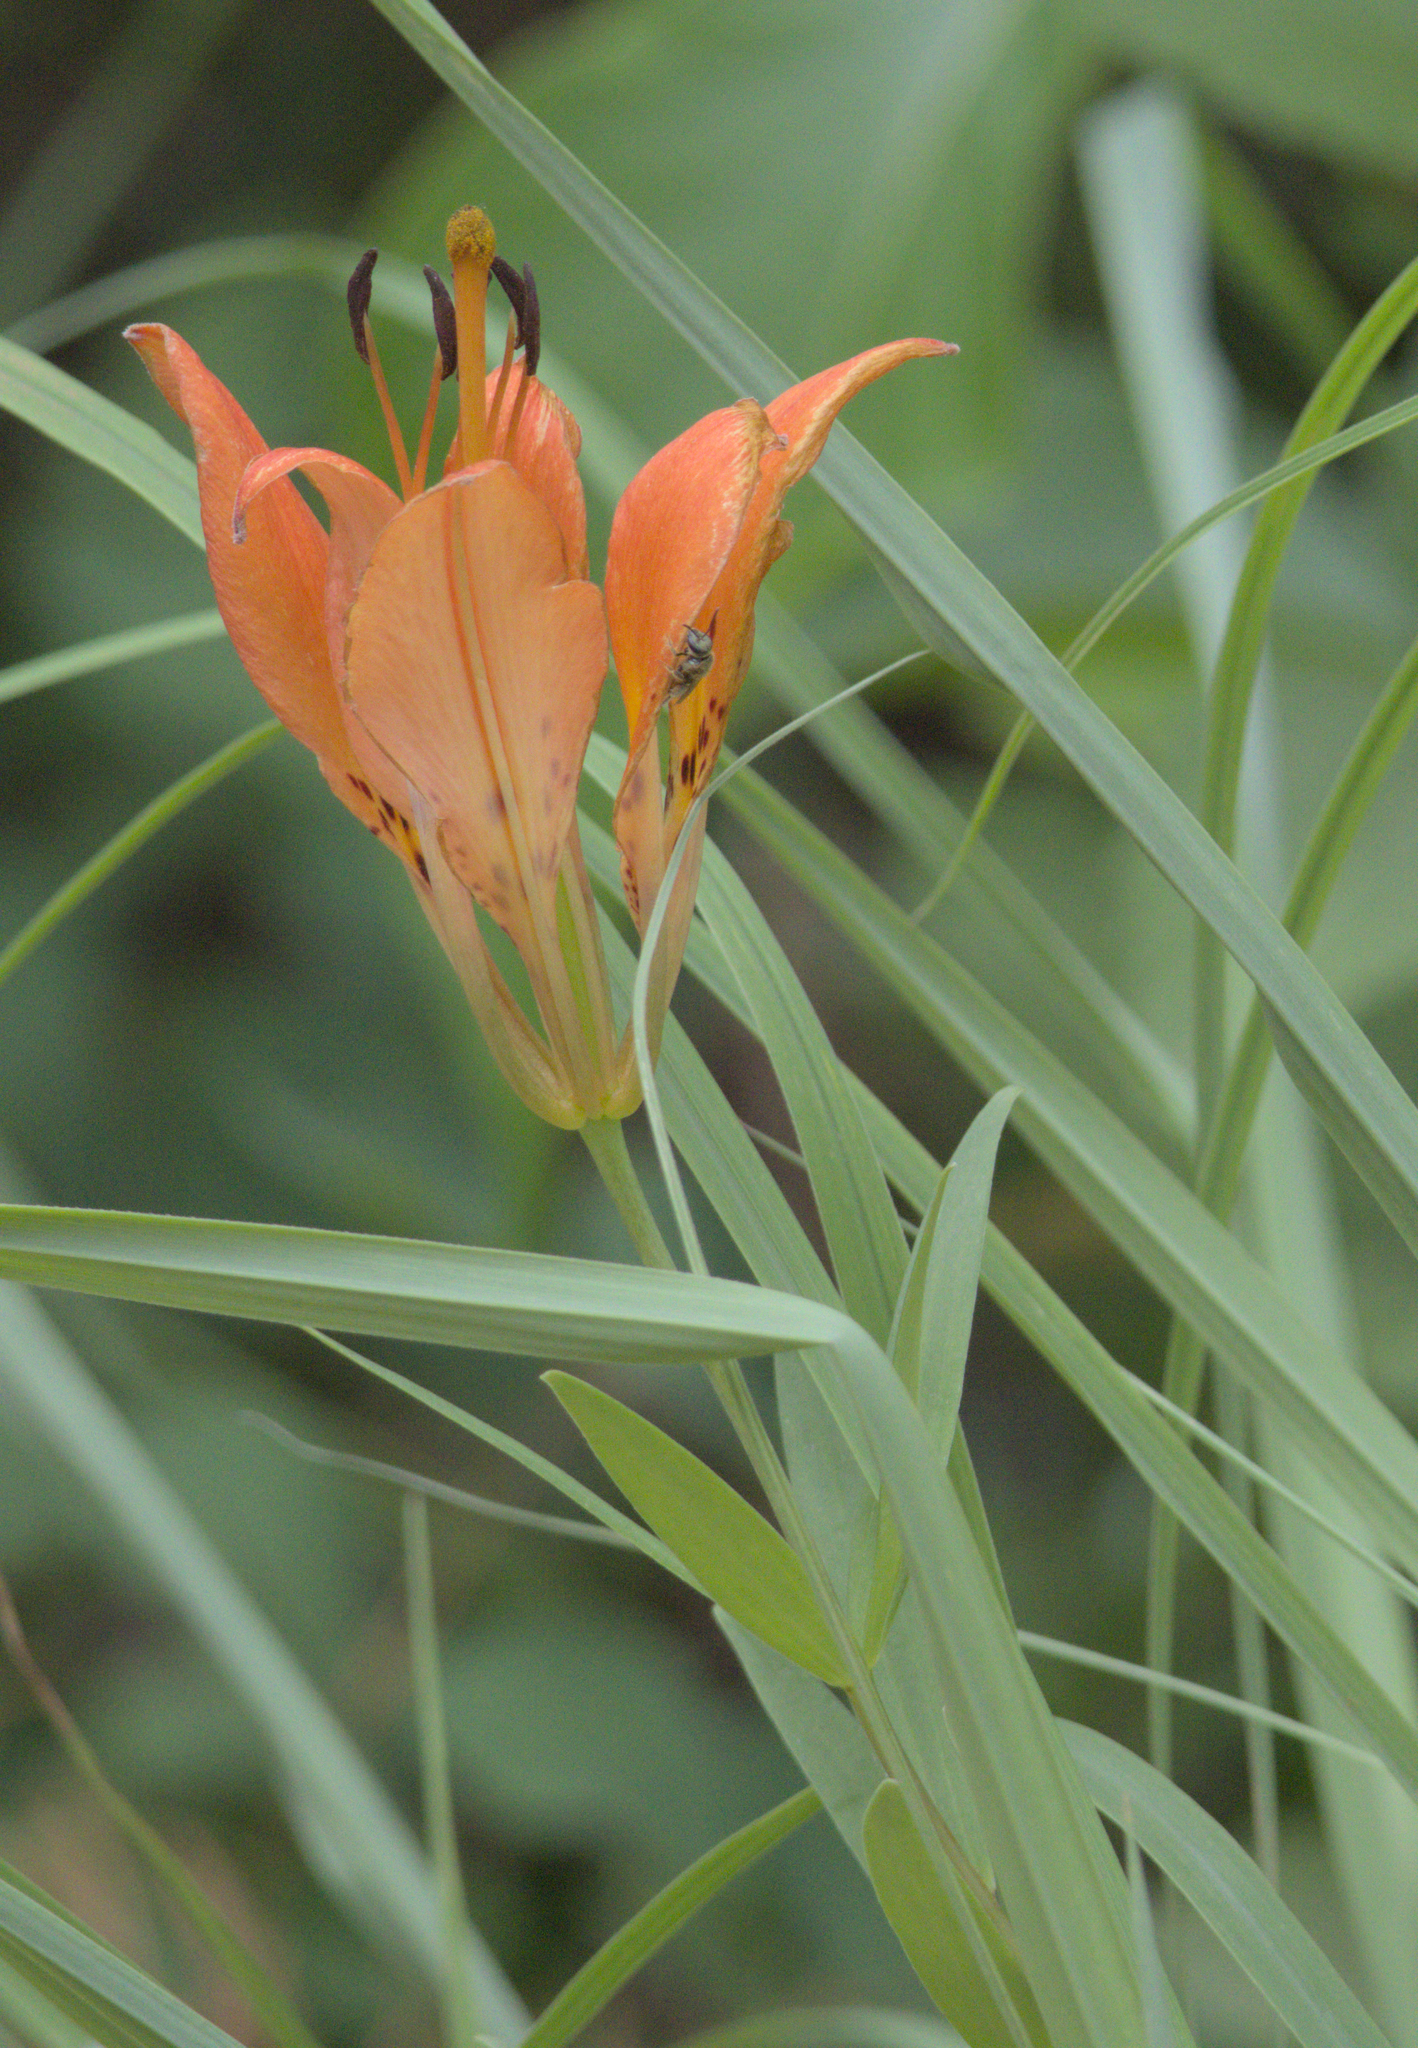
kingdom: Plantae
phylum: Tracheophyta
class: Liliopsida
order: Liliales
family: Liliaceae
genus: Lilium
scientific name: Lilium philadelphicum
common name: Red lily
